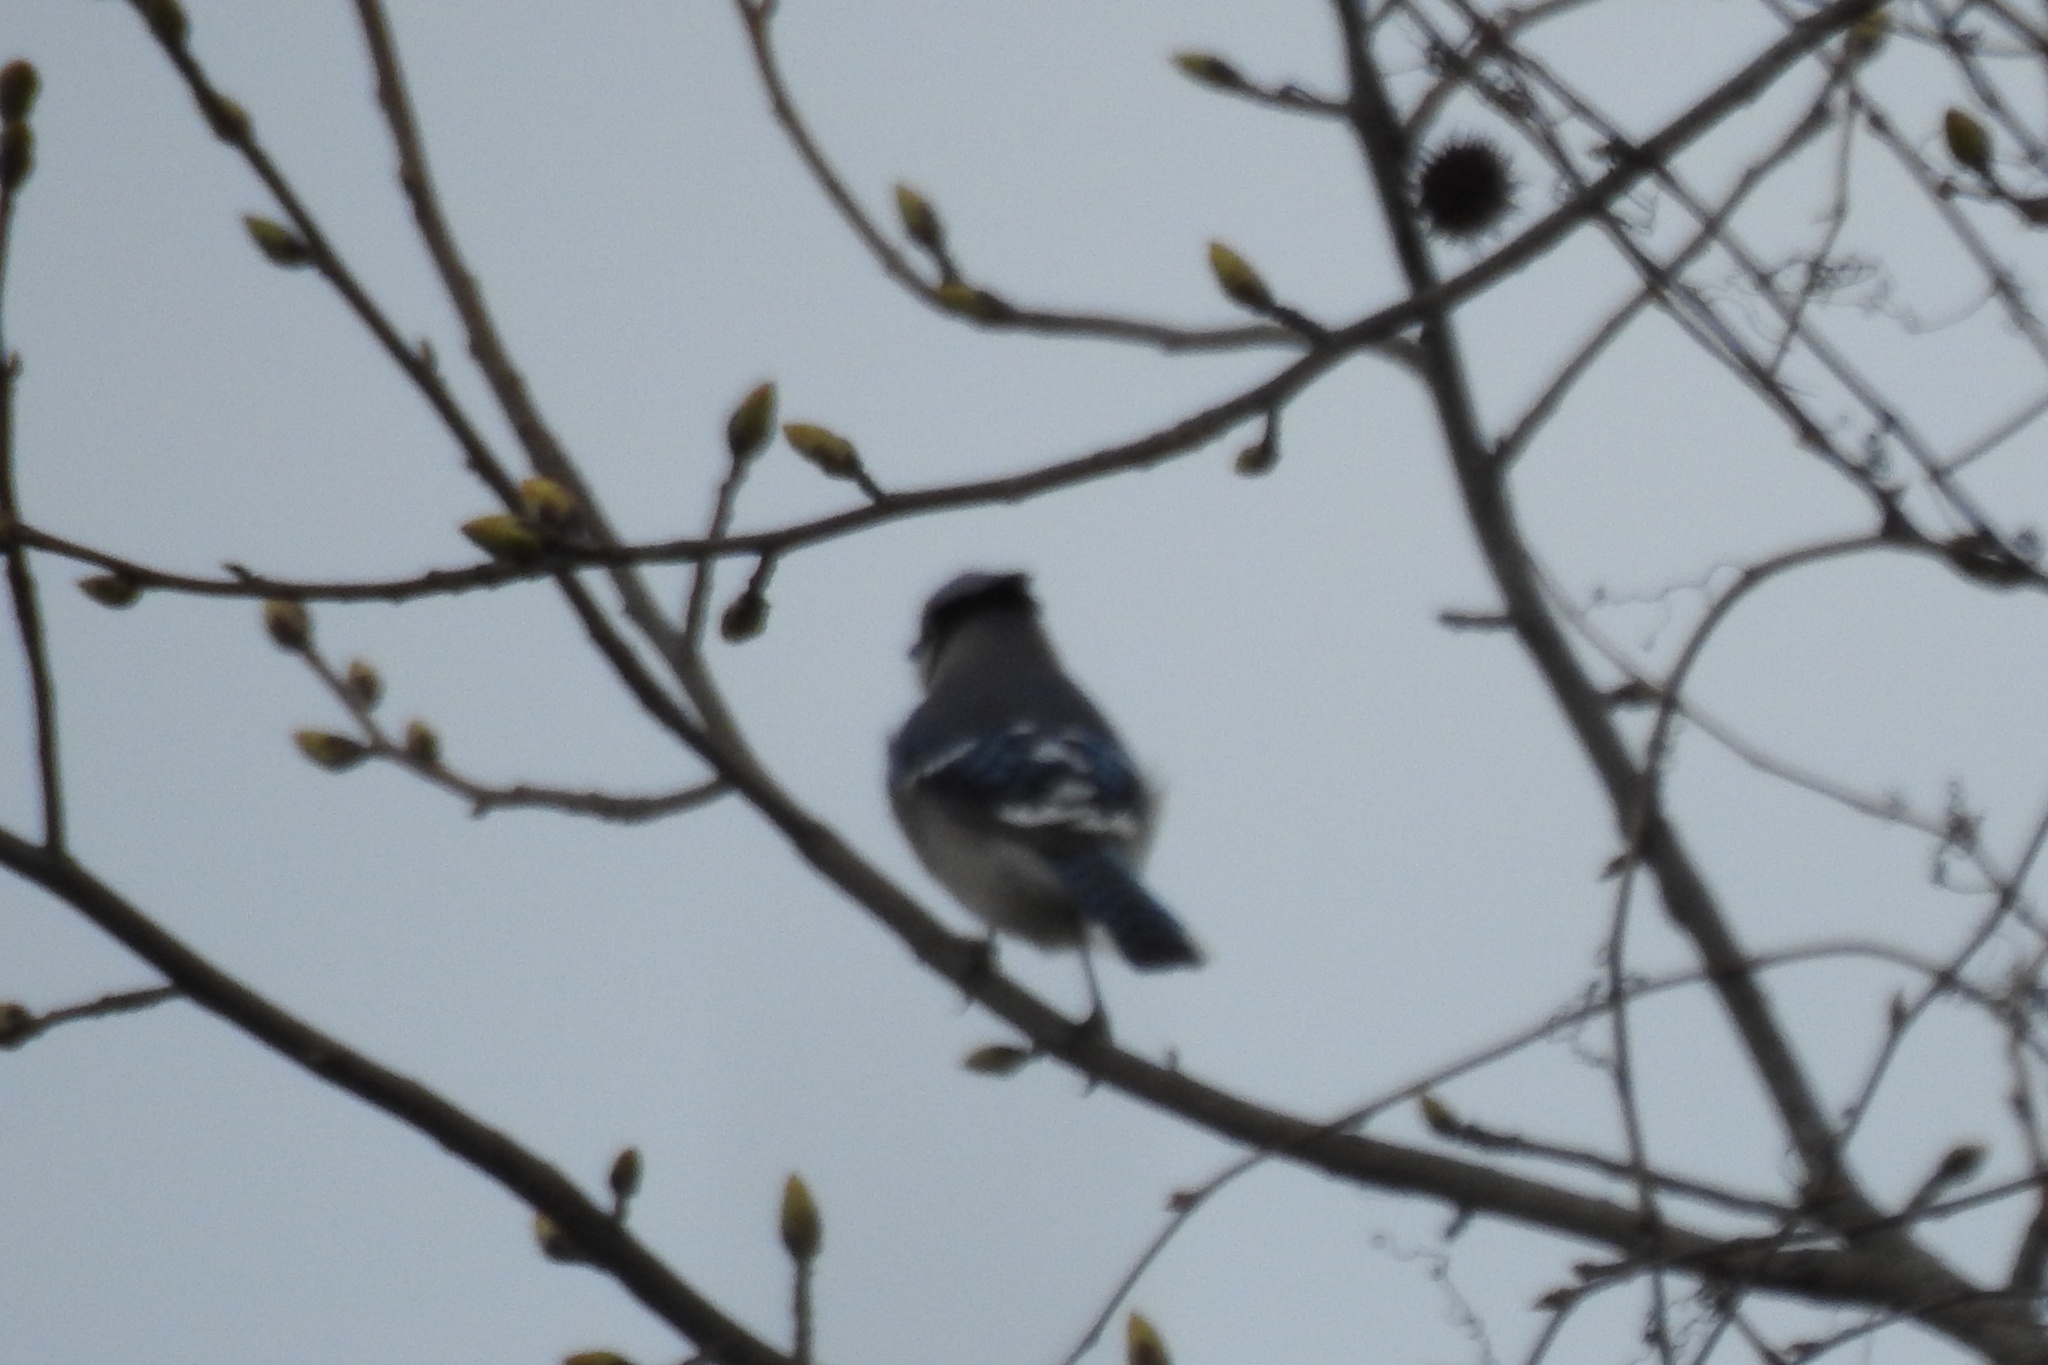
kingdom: Animalia
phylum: Chordata
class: Aves
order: Passeriformes
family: Corvidae
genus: Cyanocitta
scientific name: Cyanocitta cristata
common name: Blue jay
